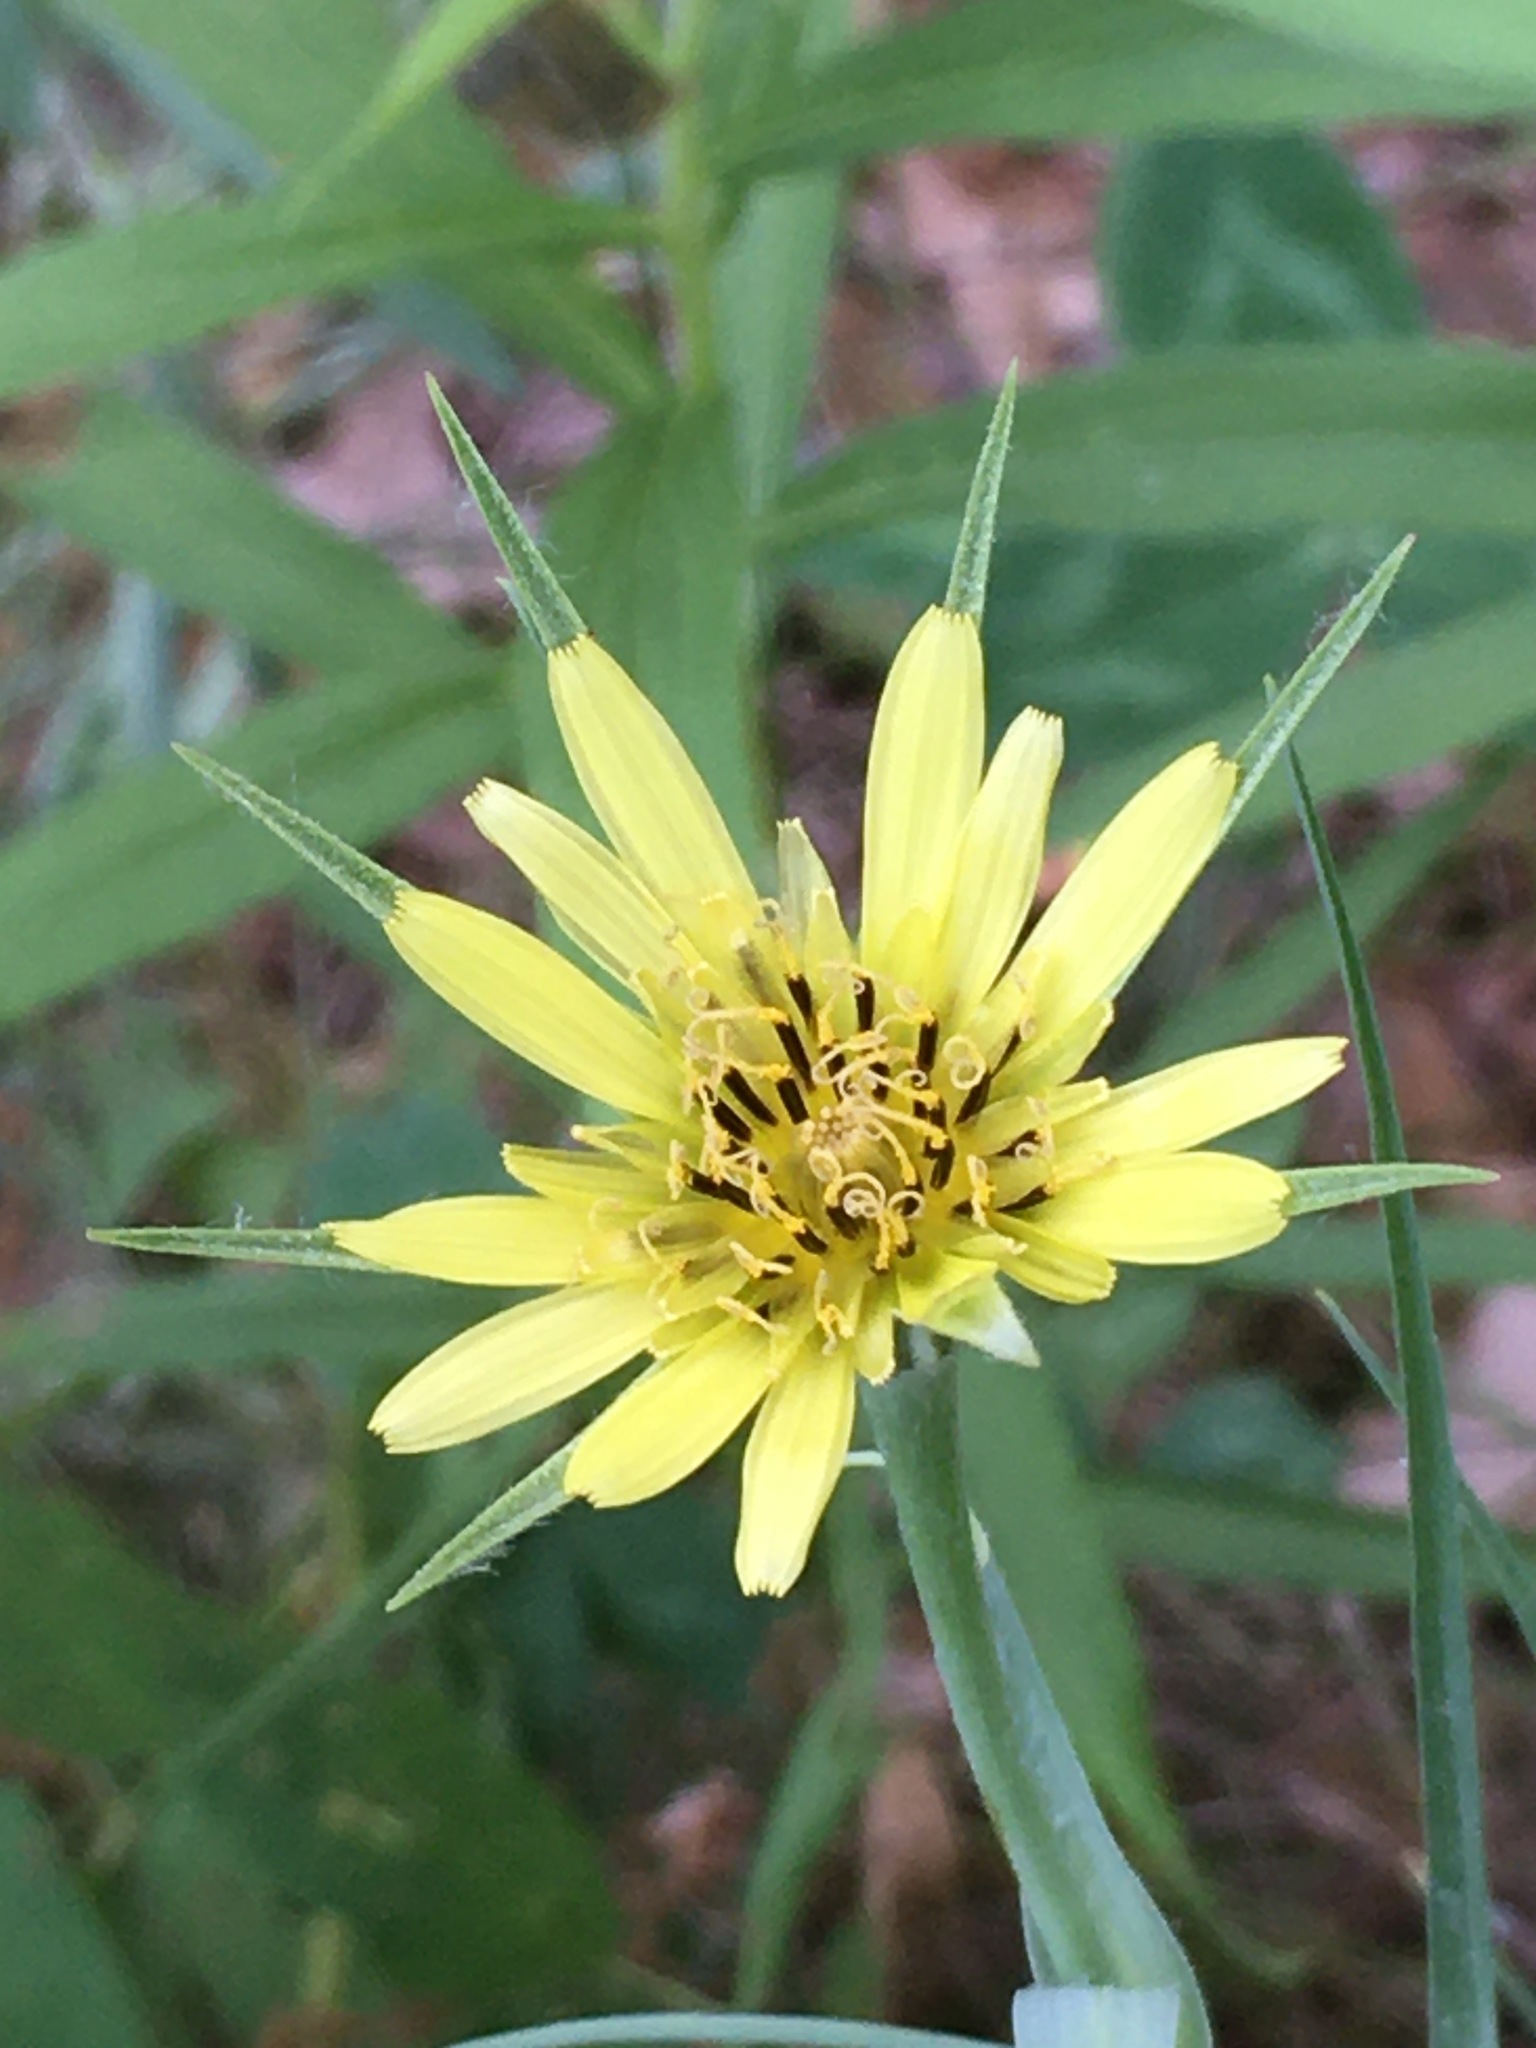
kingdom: Plantae
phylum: Tracheophyta
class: Magnoliopsida
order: Asterales
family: Asteraceae
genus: Tragopogon
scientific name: Tragopogon dubius
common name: Yellow salsify
